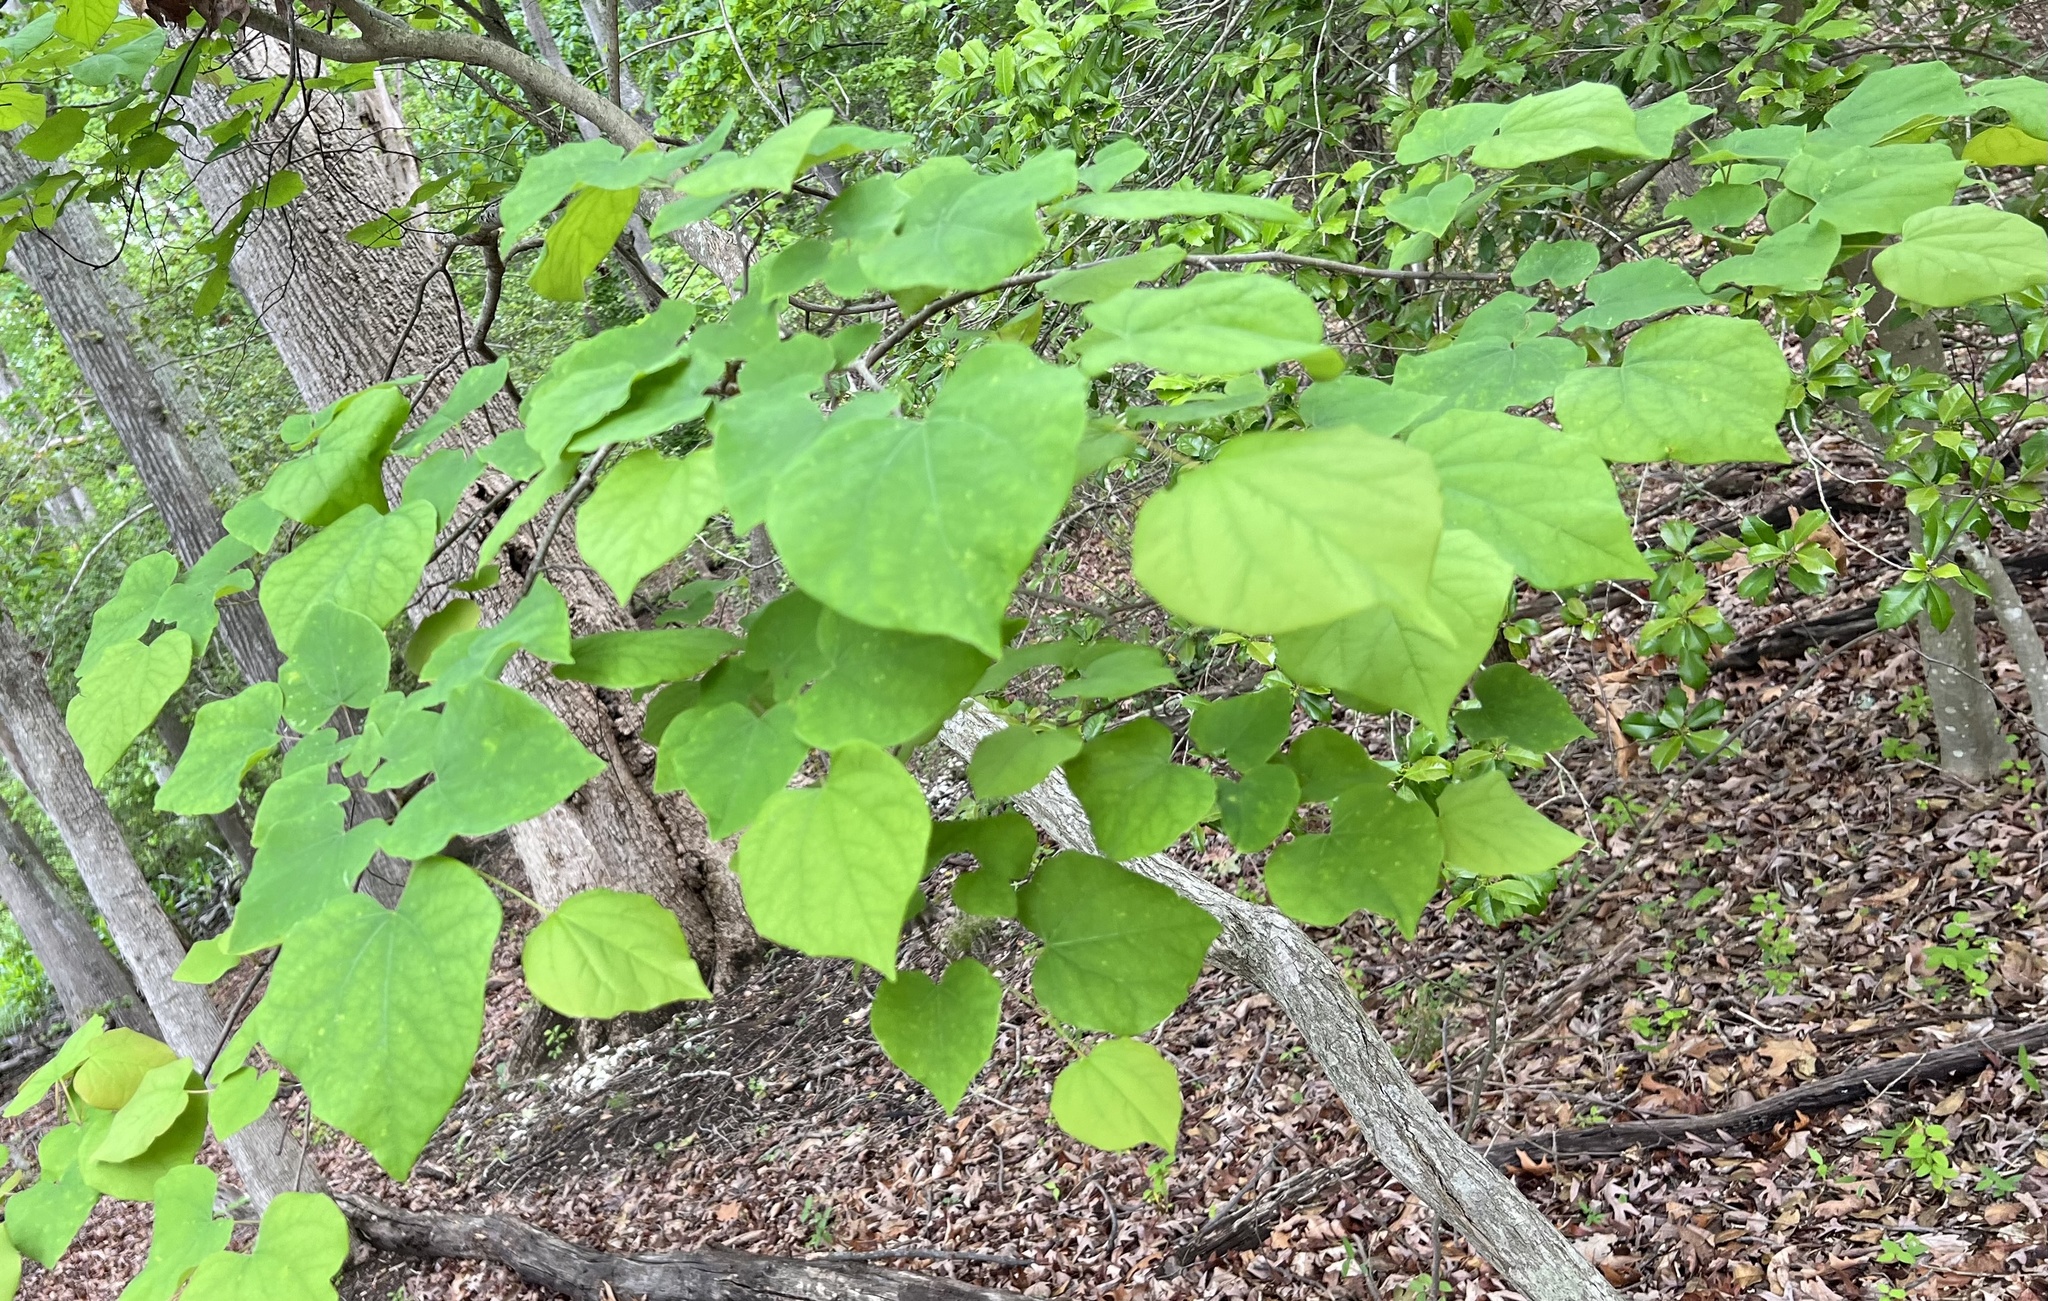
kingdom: Plantae
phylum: Tracheophyta
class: Magnoliopsida
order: Fabales
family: Fabaceae
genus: Cercis
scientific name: Cercis canadensis
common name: Eastern redbud
